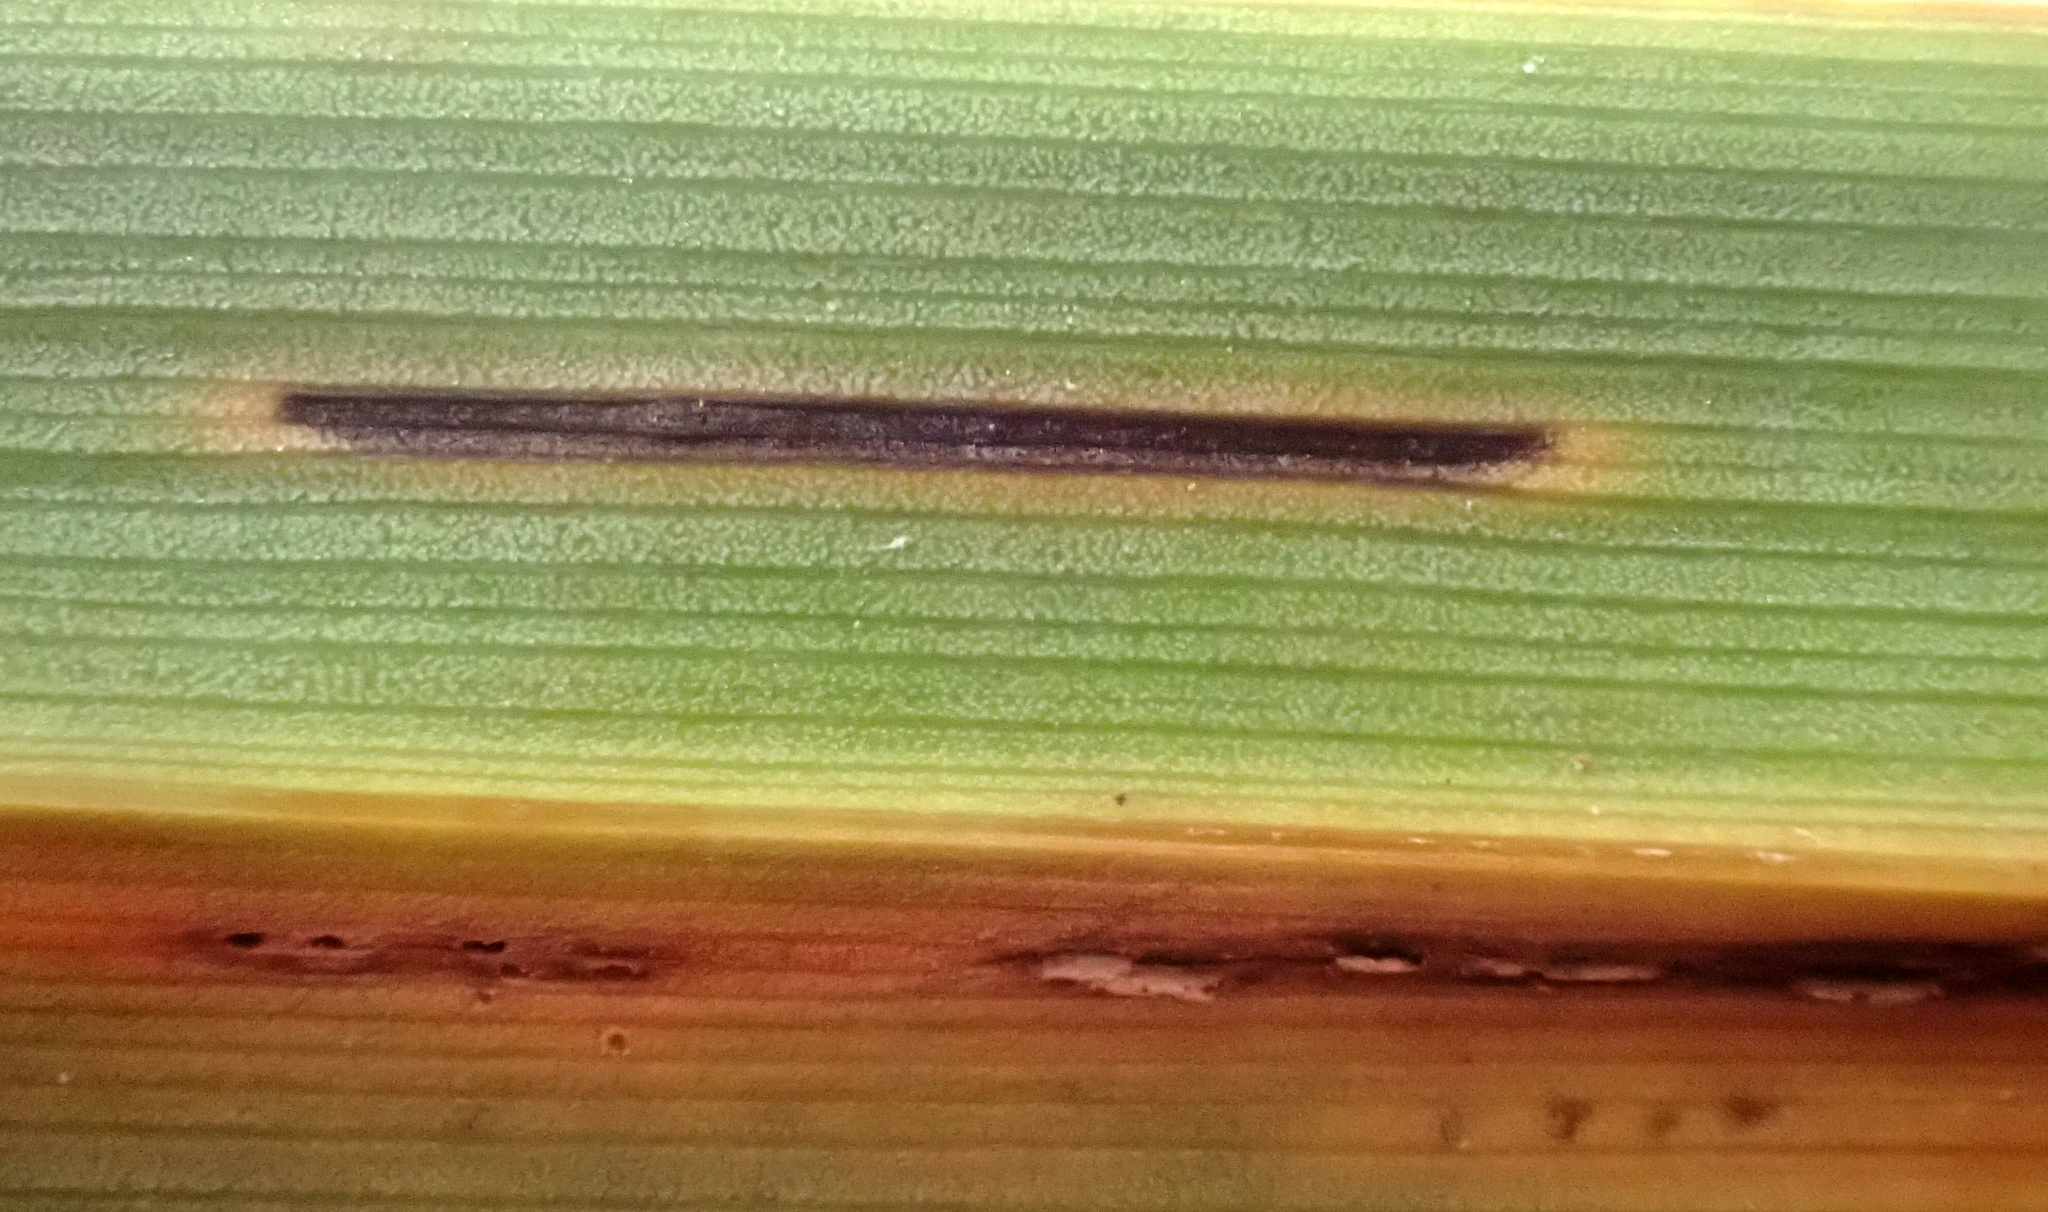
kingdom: Fungi
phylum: Basidiomycota
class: Pucciniomycetes
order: Pucciniales
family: Pucciniaceae
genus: Puccinia
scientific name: Puccinia chathamica
